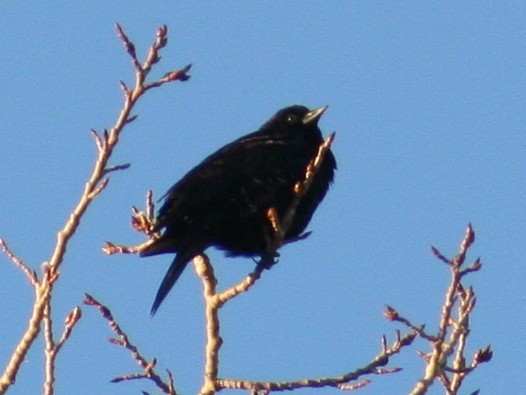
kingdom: Animalia
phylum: Chordata
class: Aves
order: Passeriformes
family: Icteridae
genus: Agelaius
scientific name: Agelaius phoeniceus
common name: Red-winged blackbird
